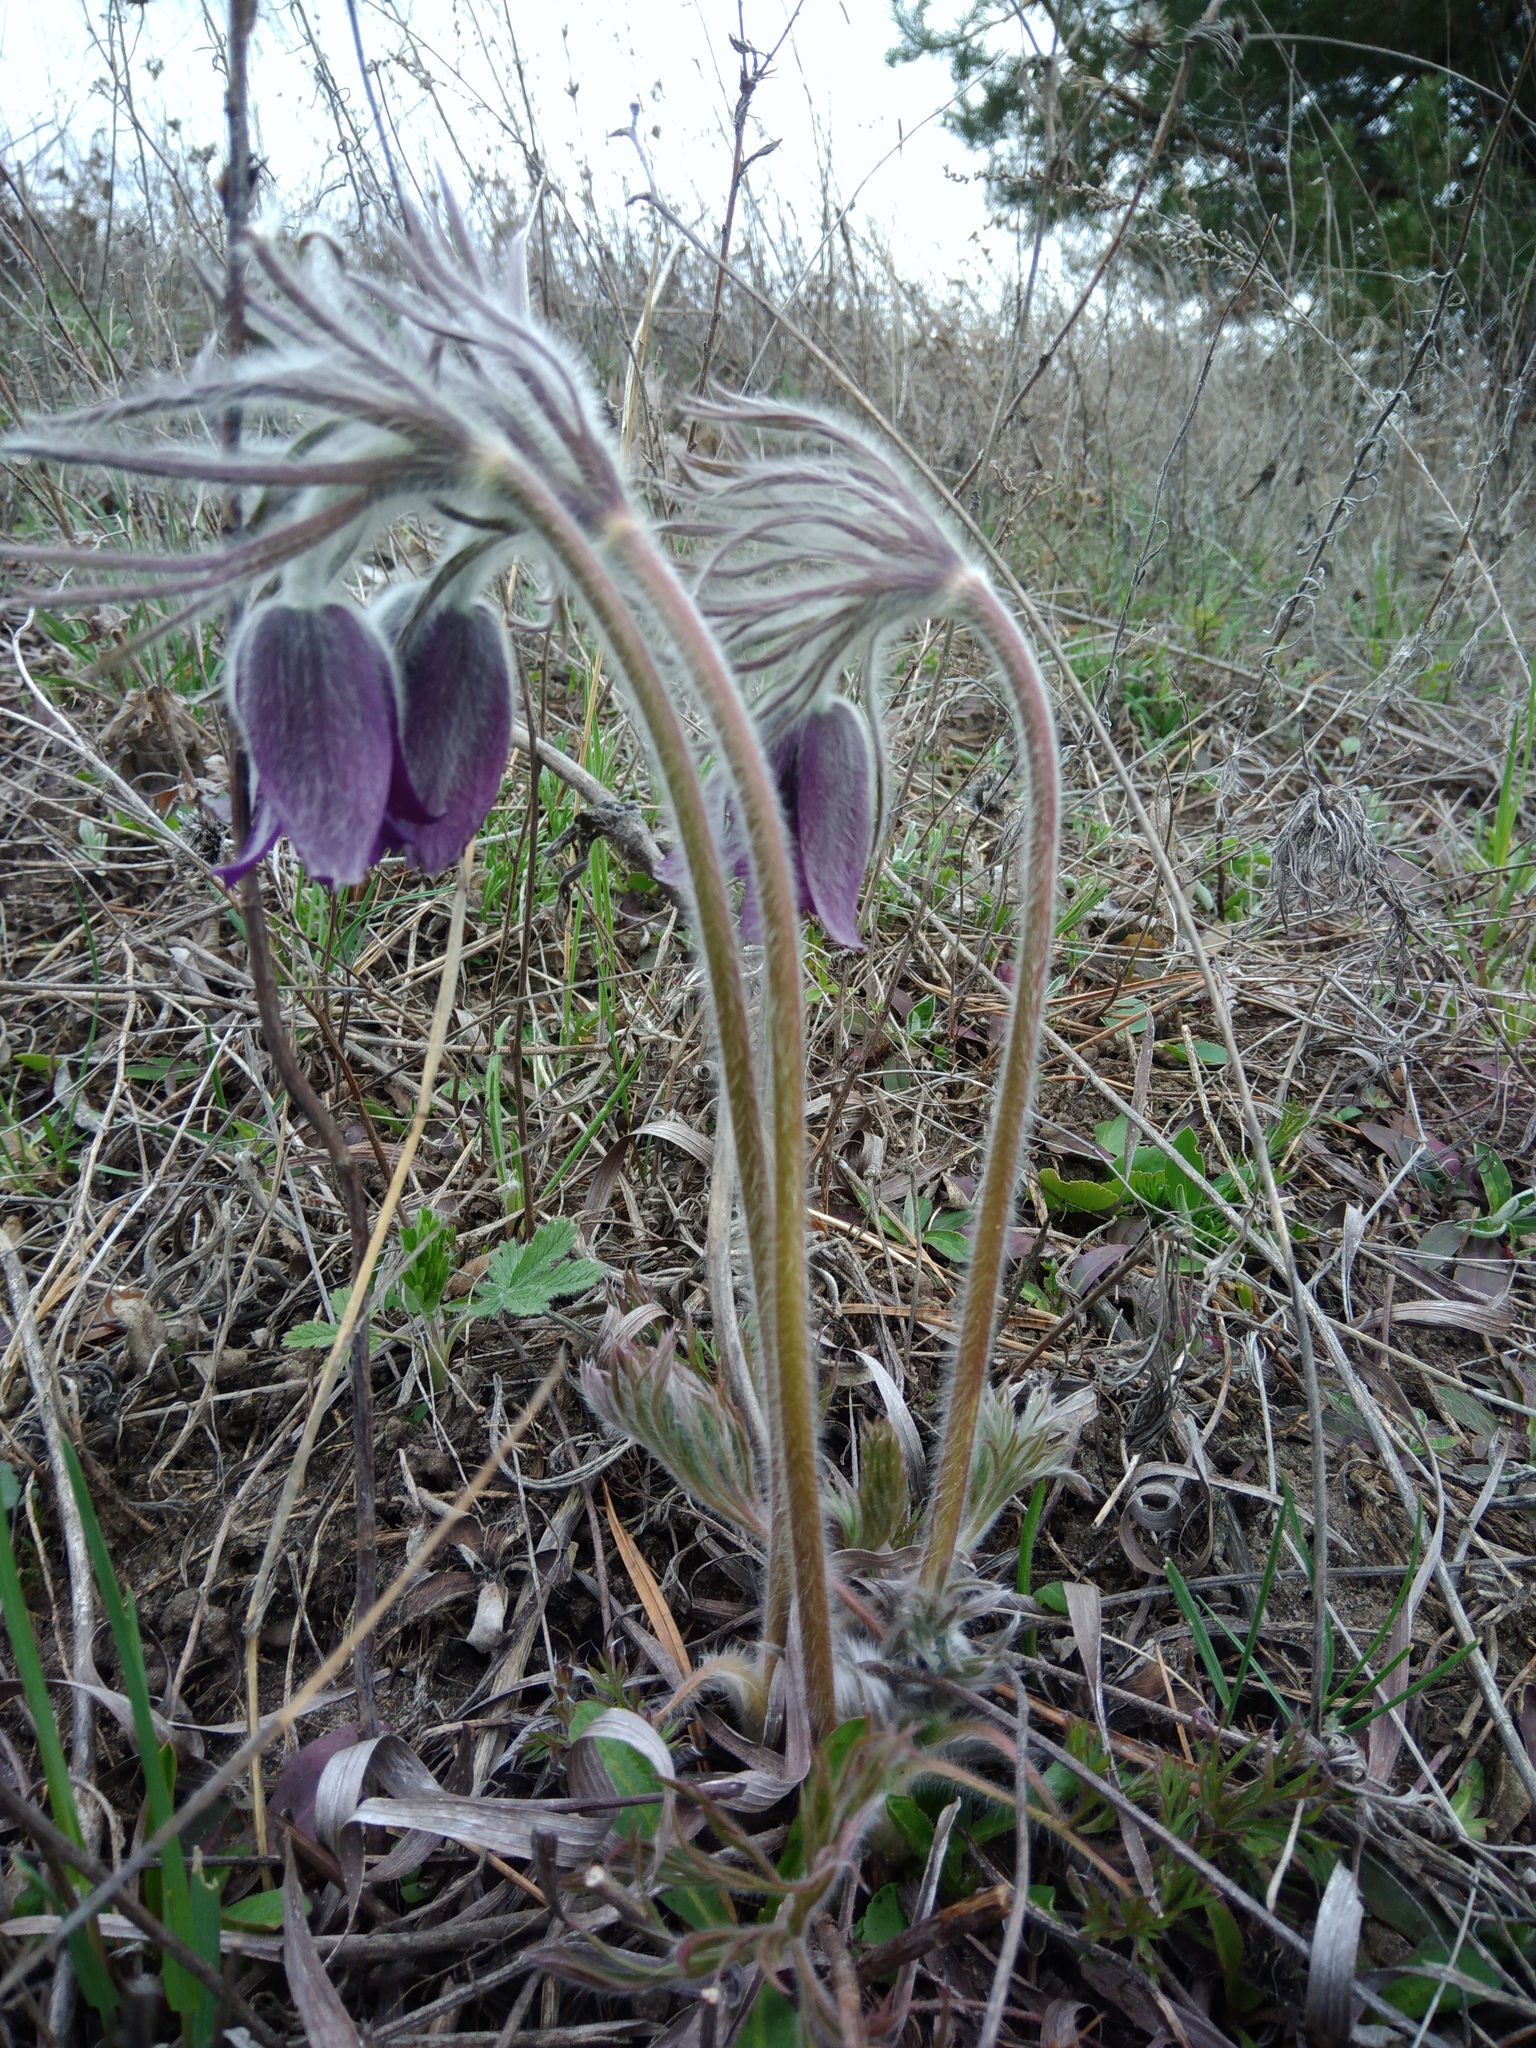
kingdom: Plantae
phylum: Tracheophyta
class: Magnoliopsida
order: Ranunculales
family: Ranunculaceae
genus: Pulsatilla
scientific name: Pulsatilla pratensis
